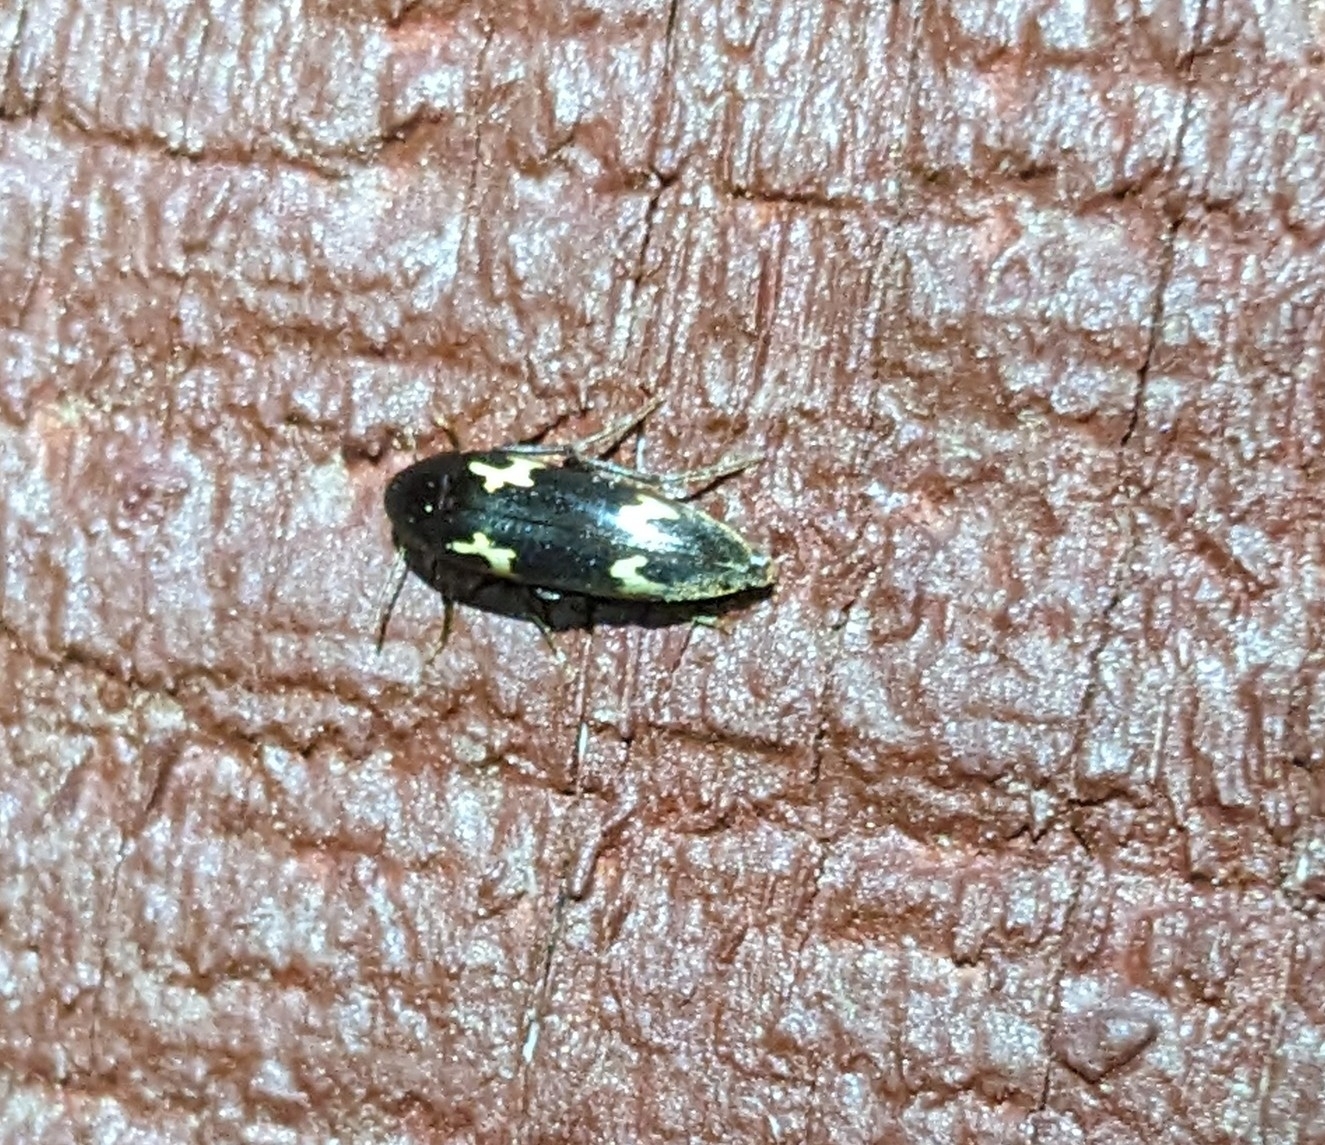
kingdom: Animalia
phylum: Arthropoda
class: Insecta
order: Coleoptera
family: Melandryidae
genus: Dircaea
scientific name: Dircaea liturata
